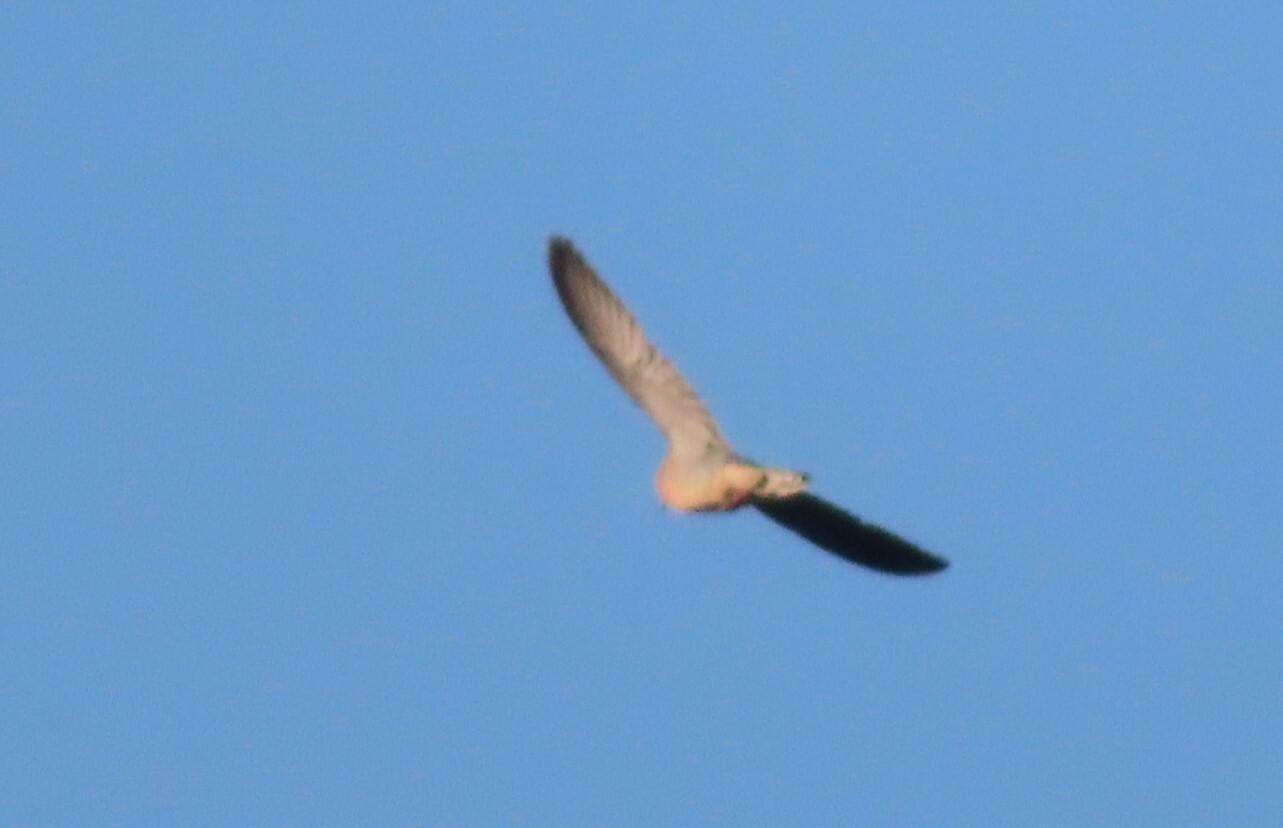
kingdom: Animalia
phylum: Chordata
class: Aves
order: Columbiformes
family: Columbidae
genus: Zenaida
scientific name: Zenaida macroura
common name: Mourning dove
